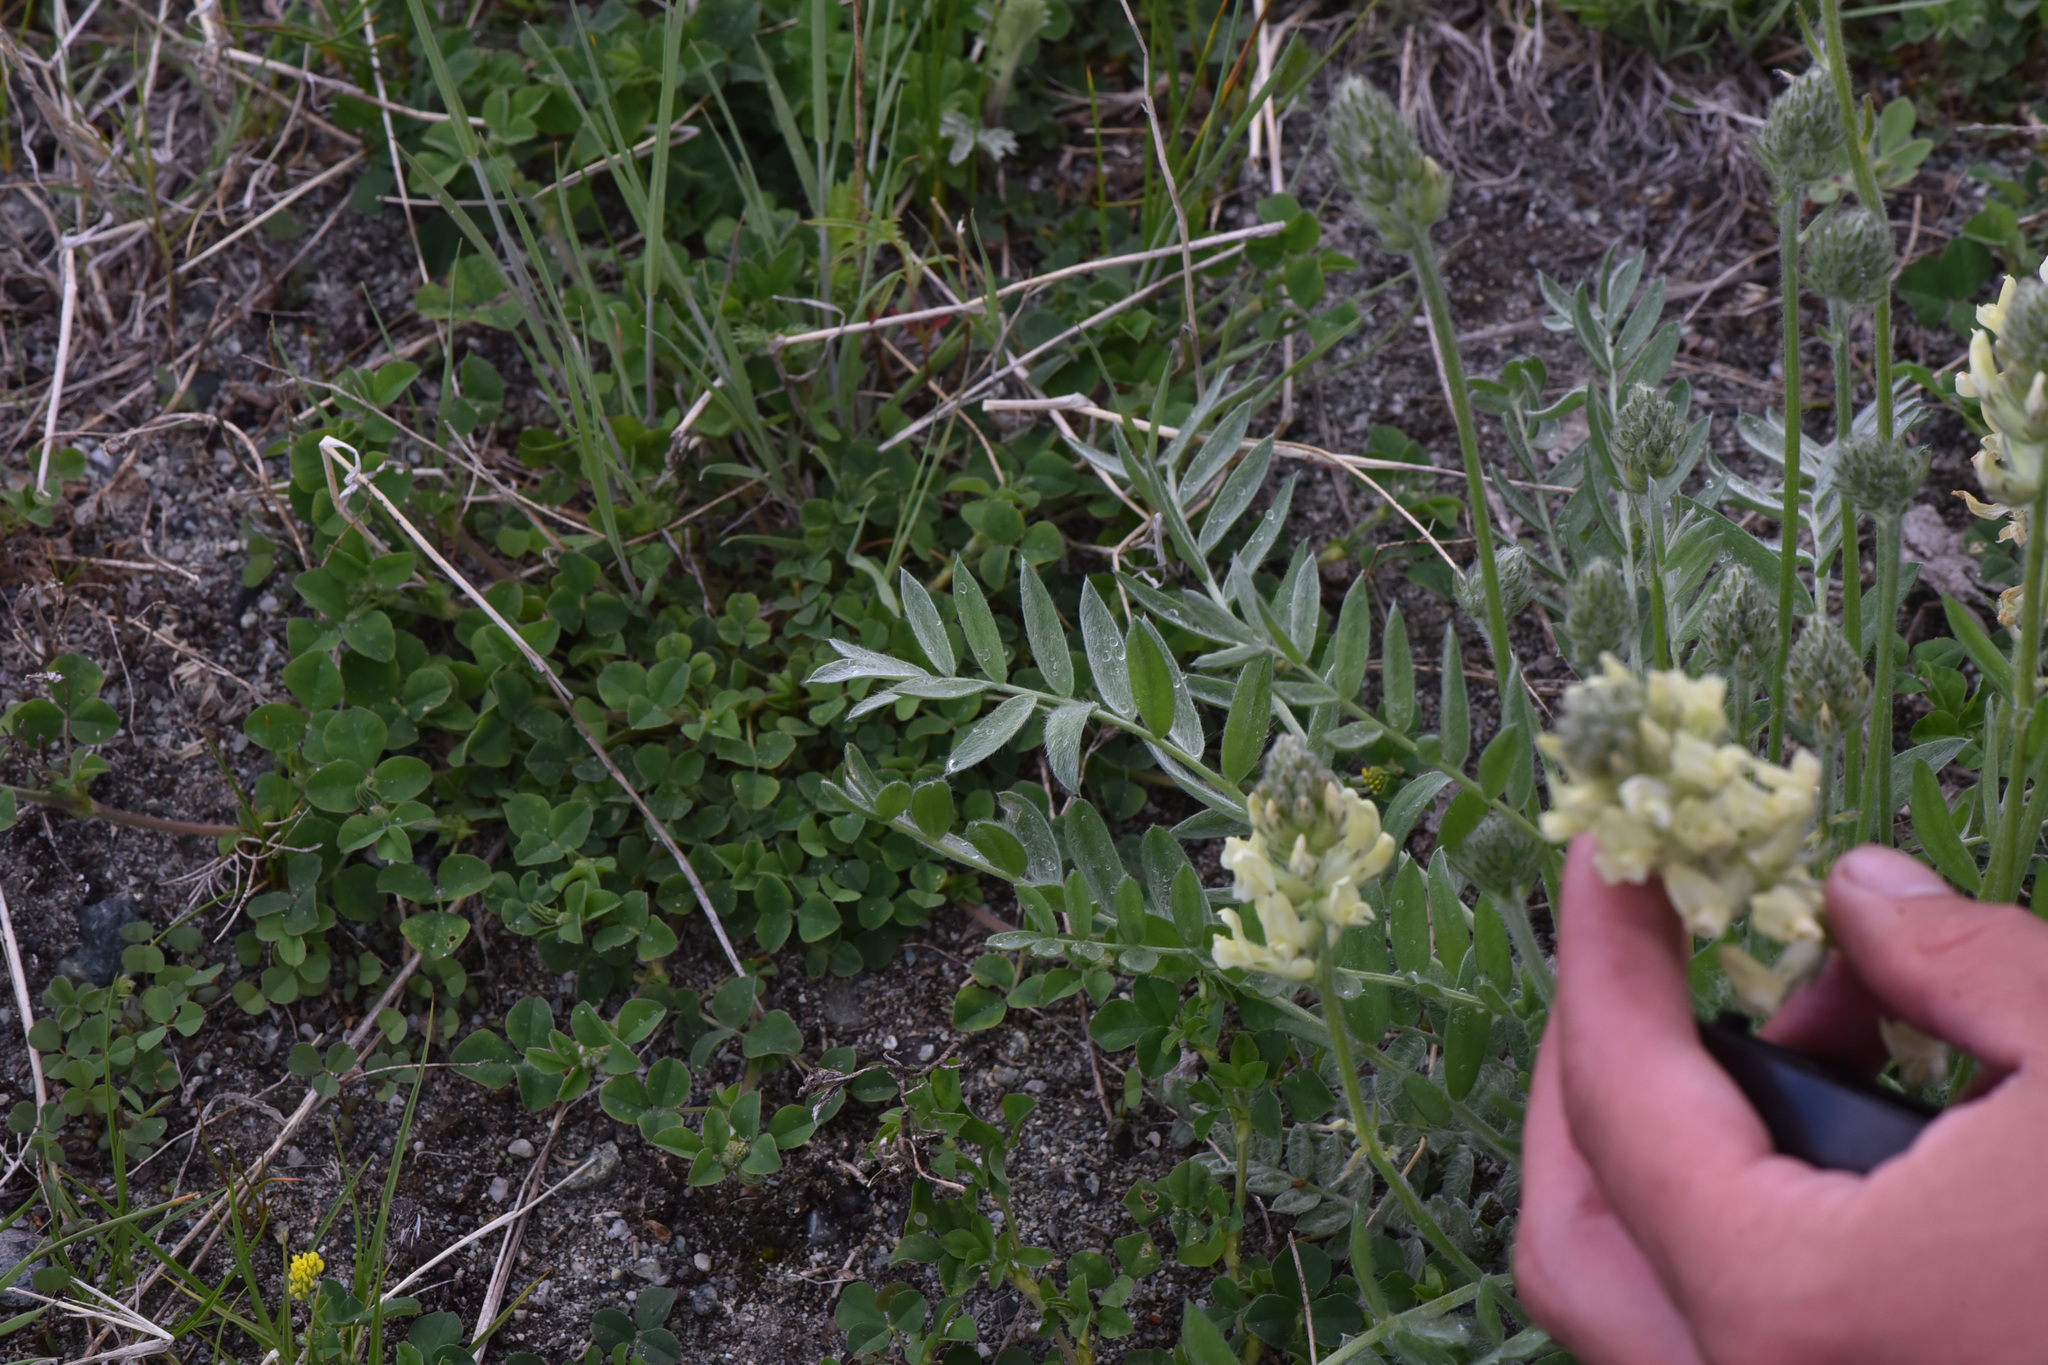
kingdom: Plantae
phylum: Tracheophyta
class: Magnoliopsida
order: Fabales
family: Fabaceae
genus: Oxytropis
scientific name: Oxytropis campestris
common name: Field locoweed
